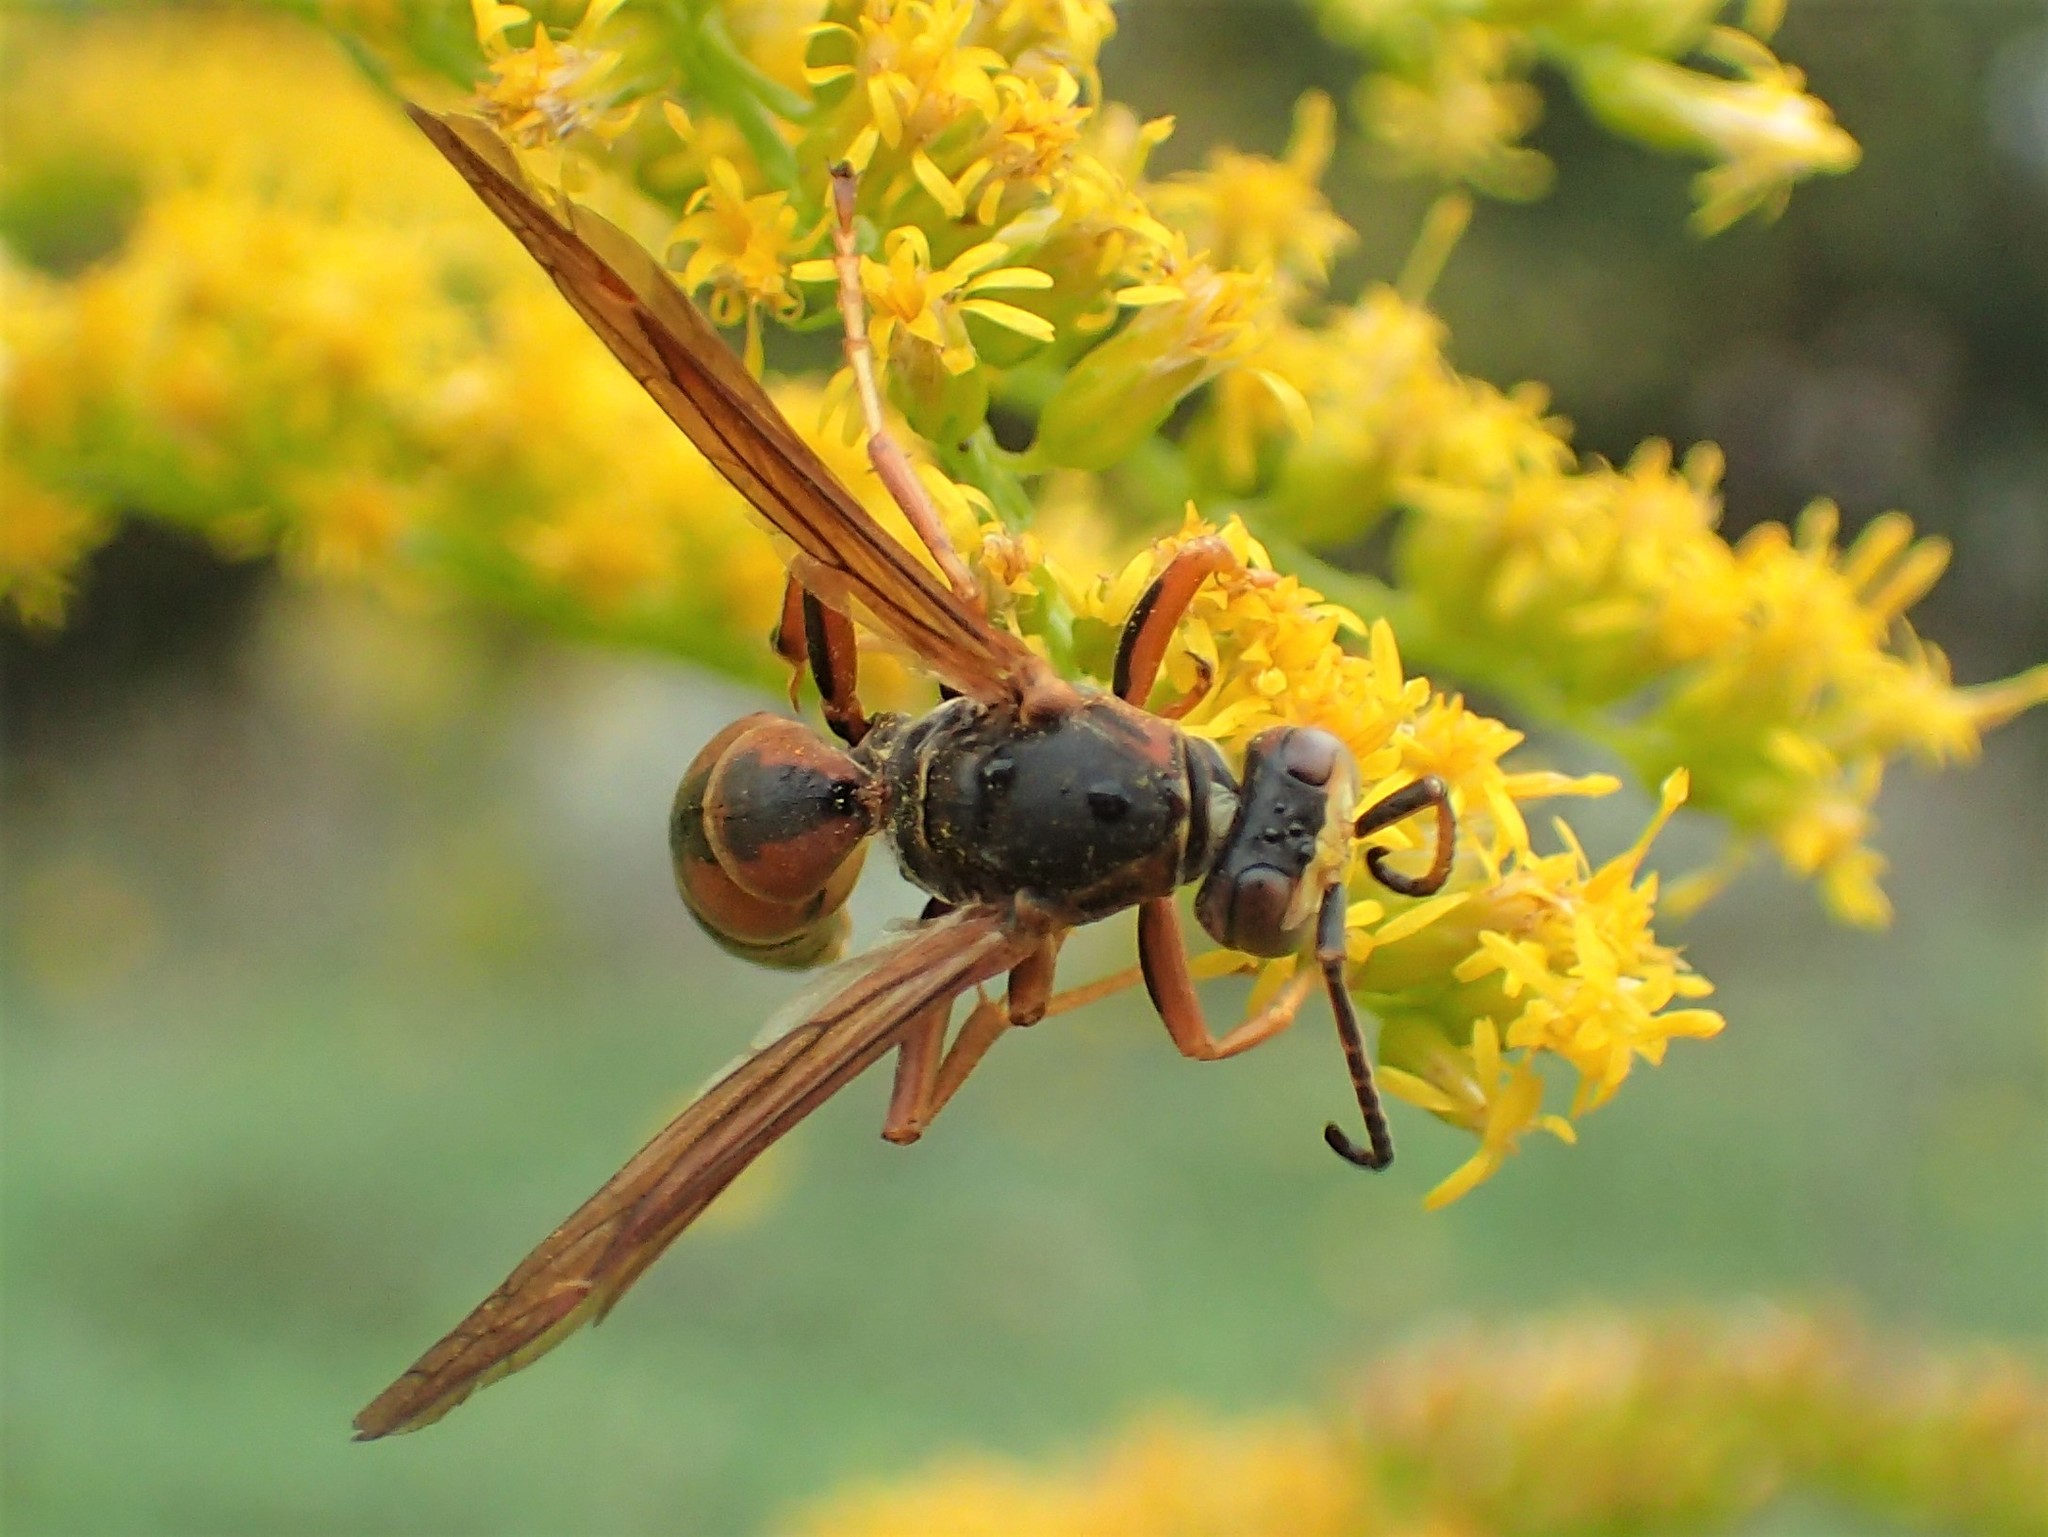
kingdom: Animalia
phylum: Arthropoda
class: Insecta
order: Hymenoptera
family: Eumenidae
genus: Polistes
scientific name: Polistes fuscatus
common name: Dark paper wasp
